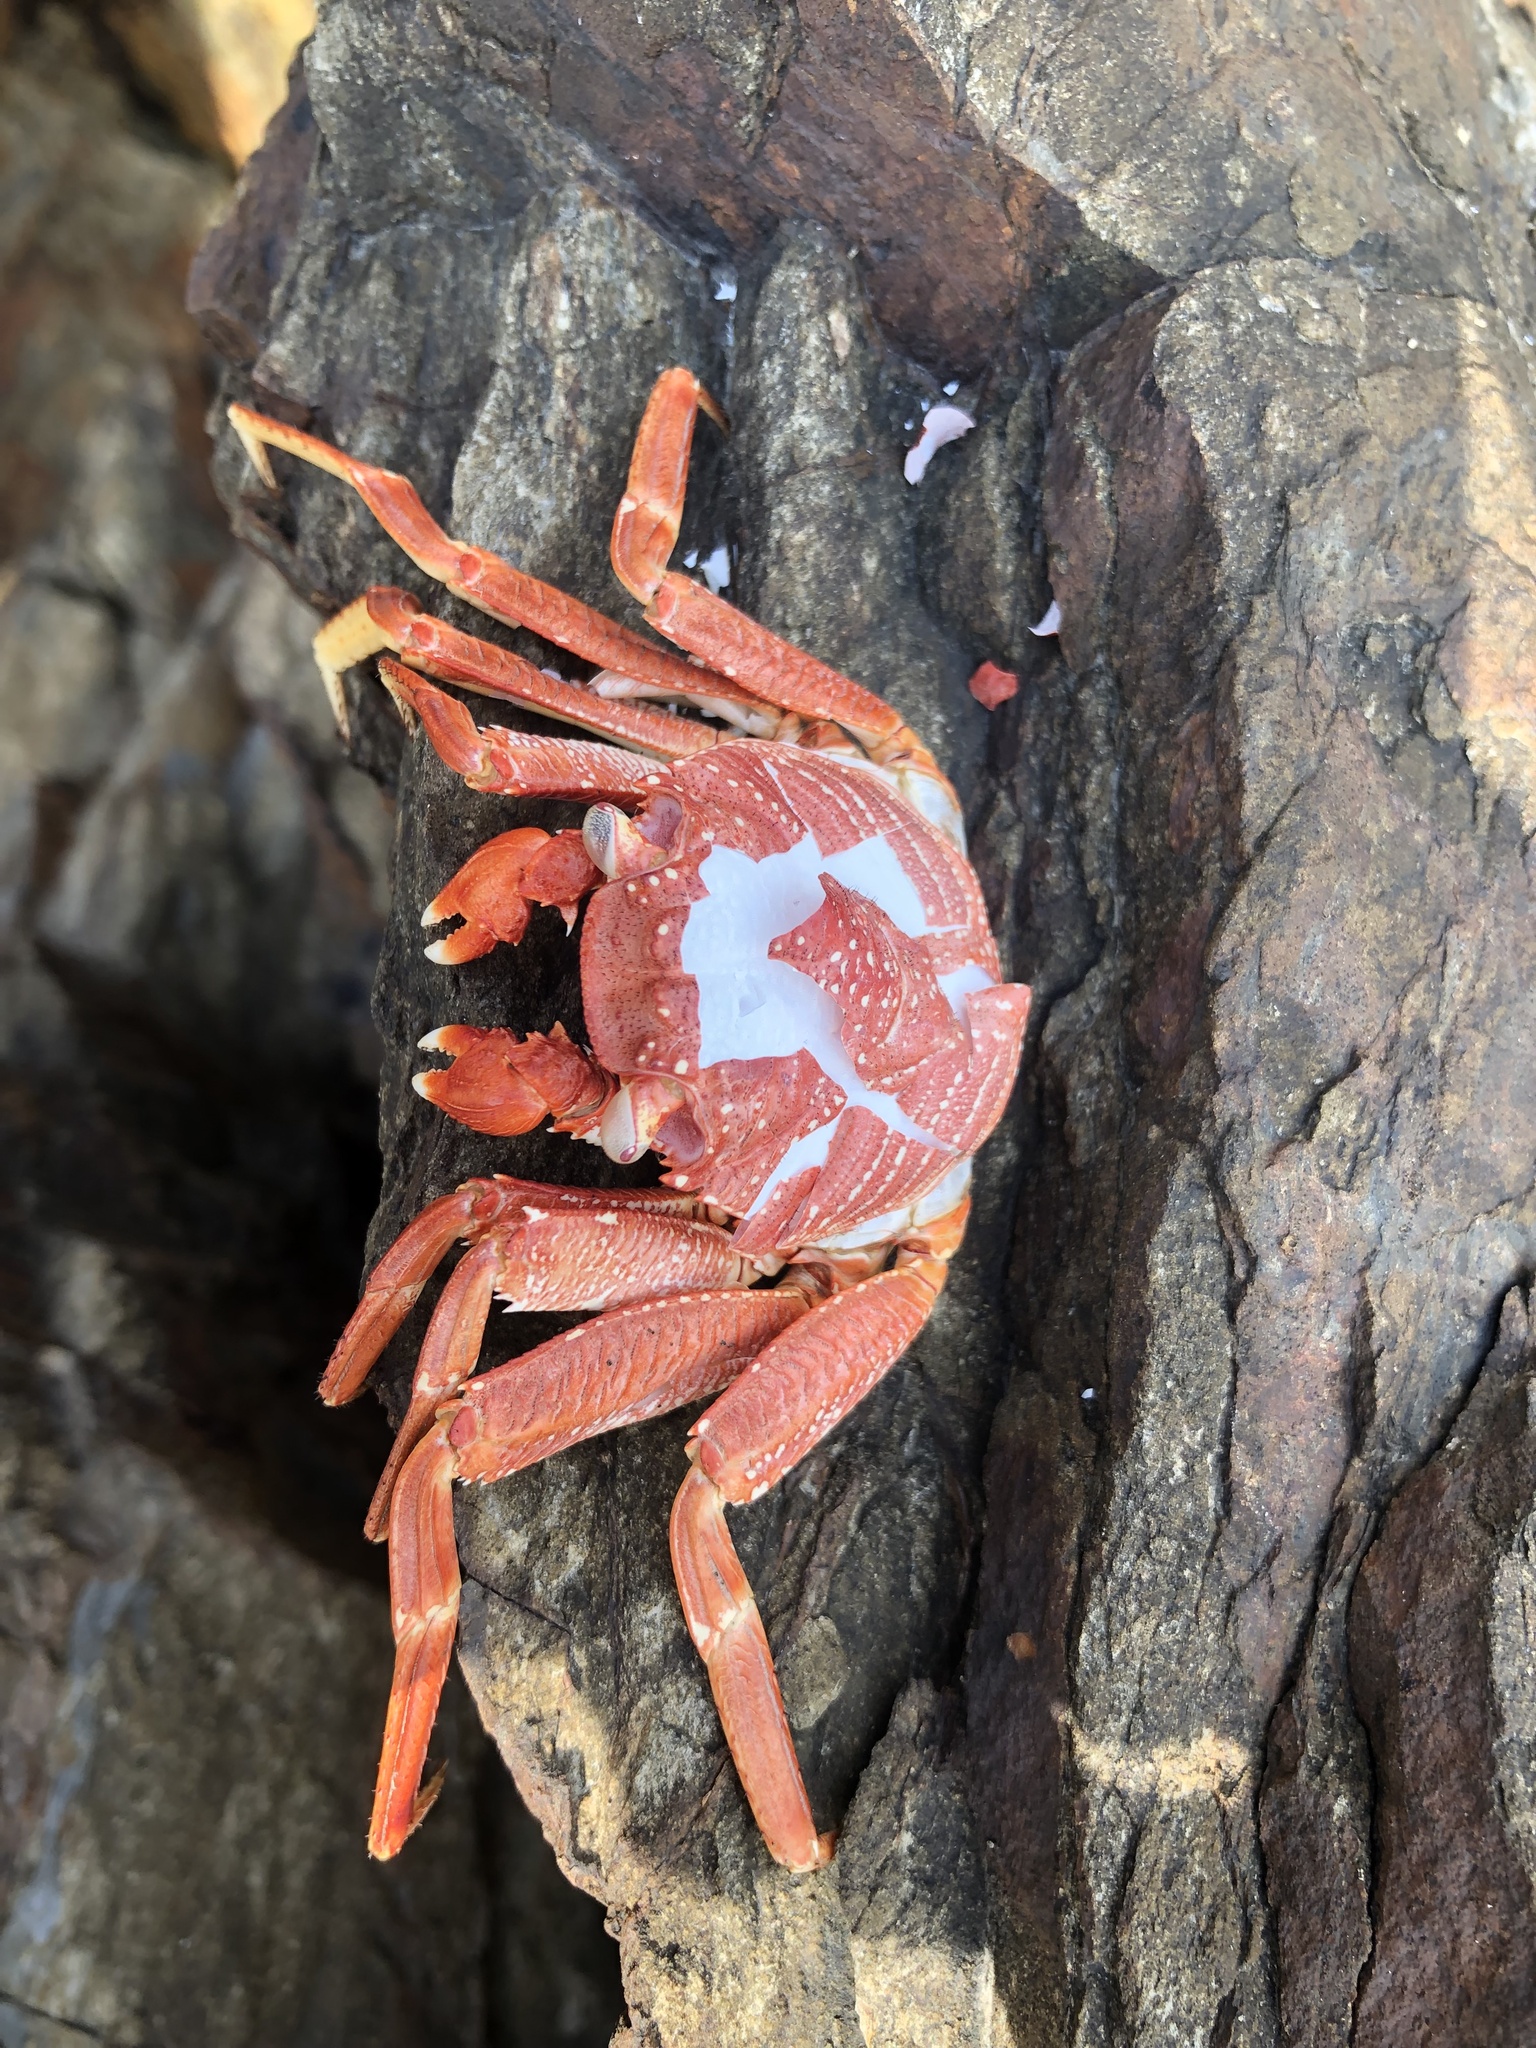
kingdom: Animalia
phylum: Arthropoda
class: Malacostraca
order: Decapoda
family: Grapsidae
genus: Grapsus
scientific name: Grapsus tenuicrustatus
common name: Natal lightfoot crab
